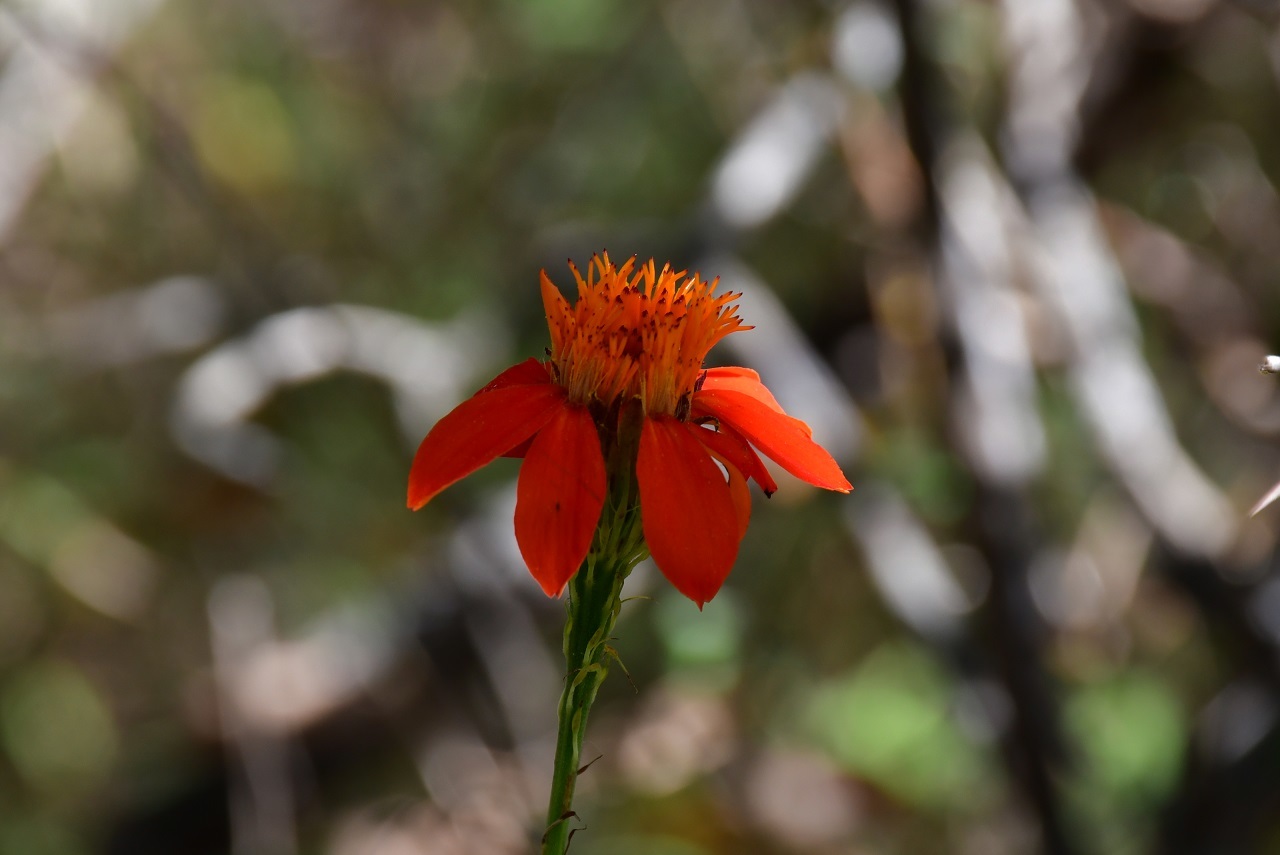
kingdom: Plantae
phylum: Tracheophyta
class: Magnoliopsida
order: Asterales
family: Asteraceae
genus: Adenophyllum
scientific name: Adenophyllum aurantium
